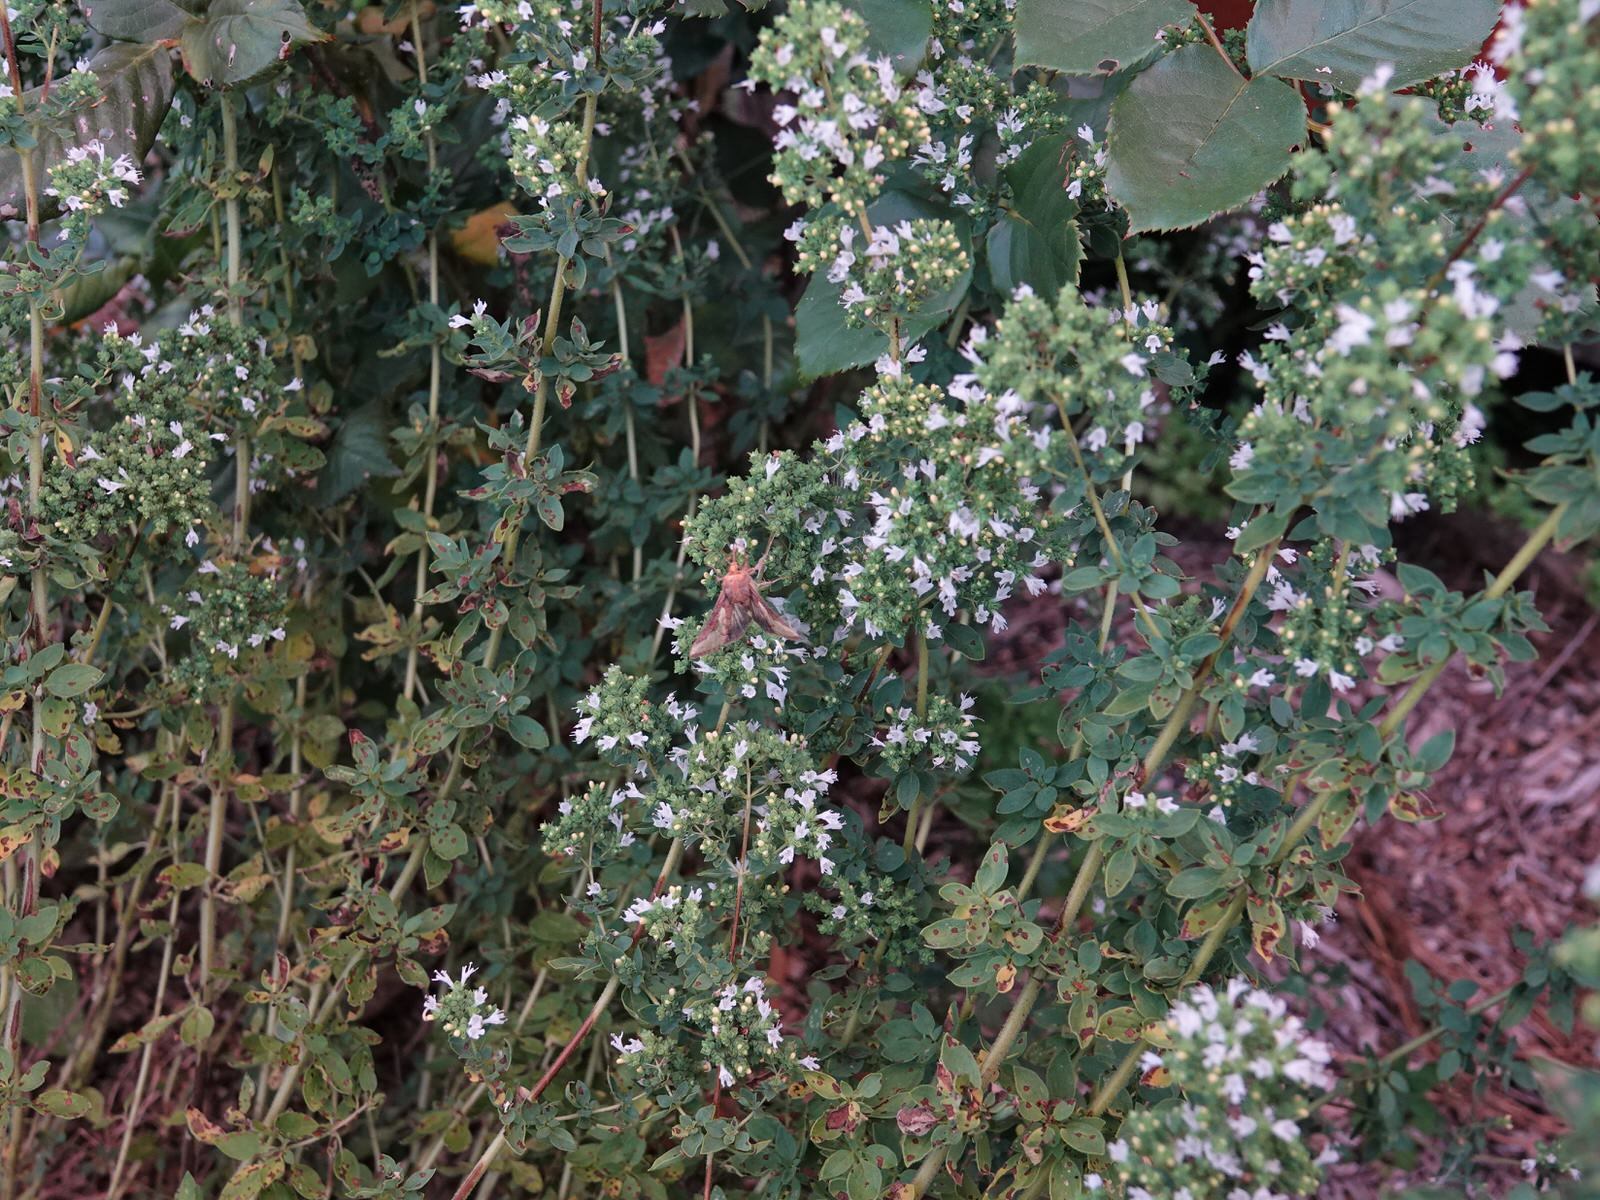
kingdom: Animalia
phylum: Arthropoda
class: Insecta
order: Lepidoptera
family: Noctuidae
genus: Thysanoplusia
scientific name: Thysanoplusia orichalcea
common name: Slender burnished brass, golden plusia
